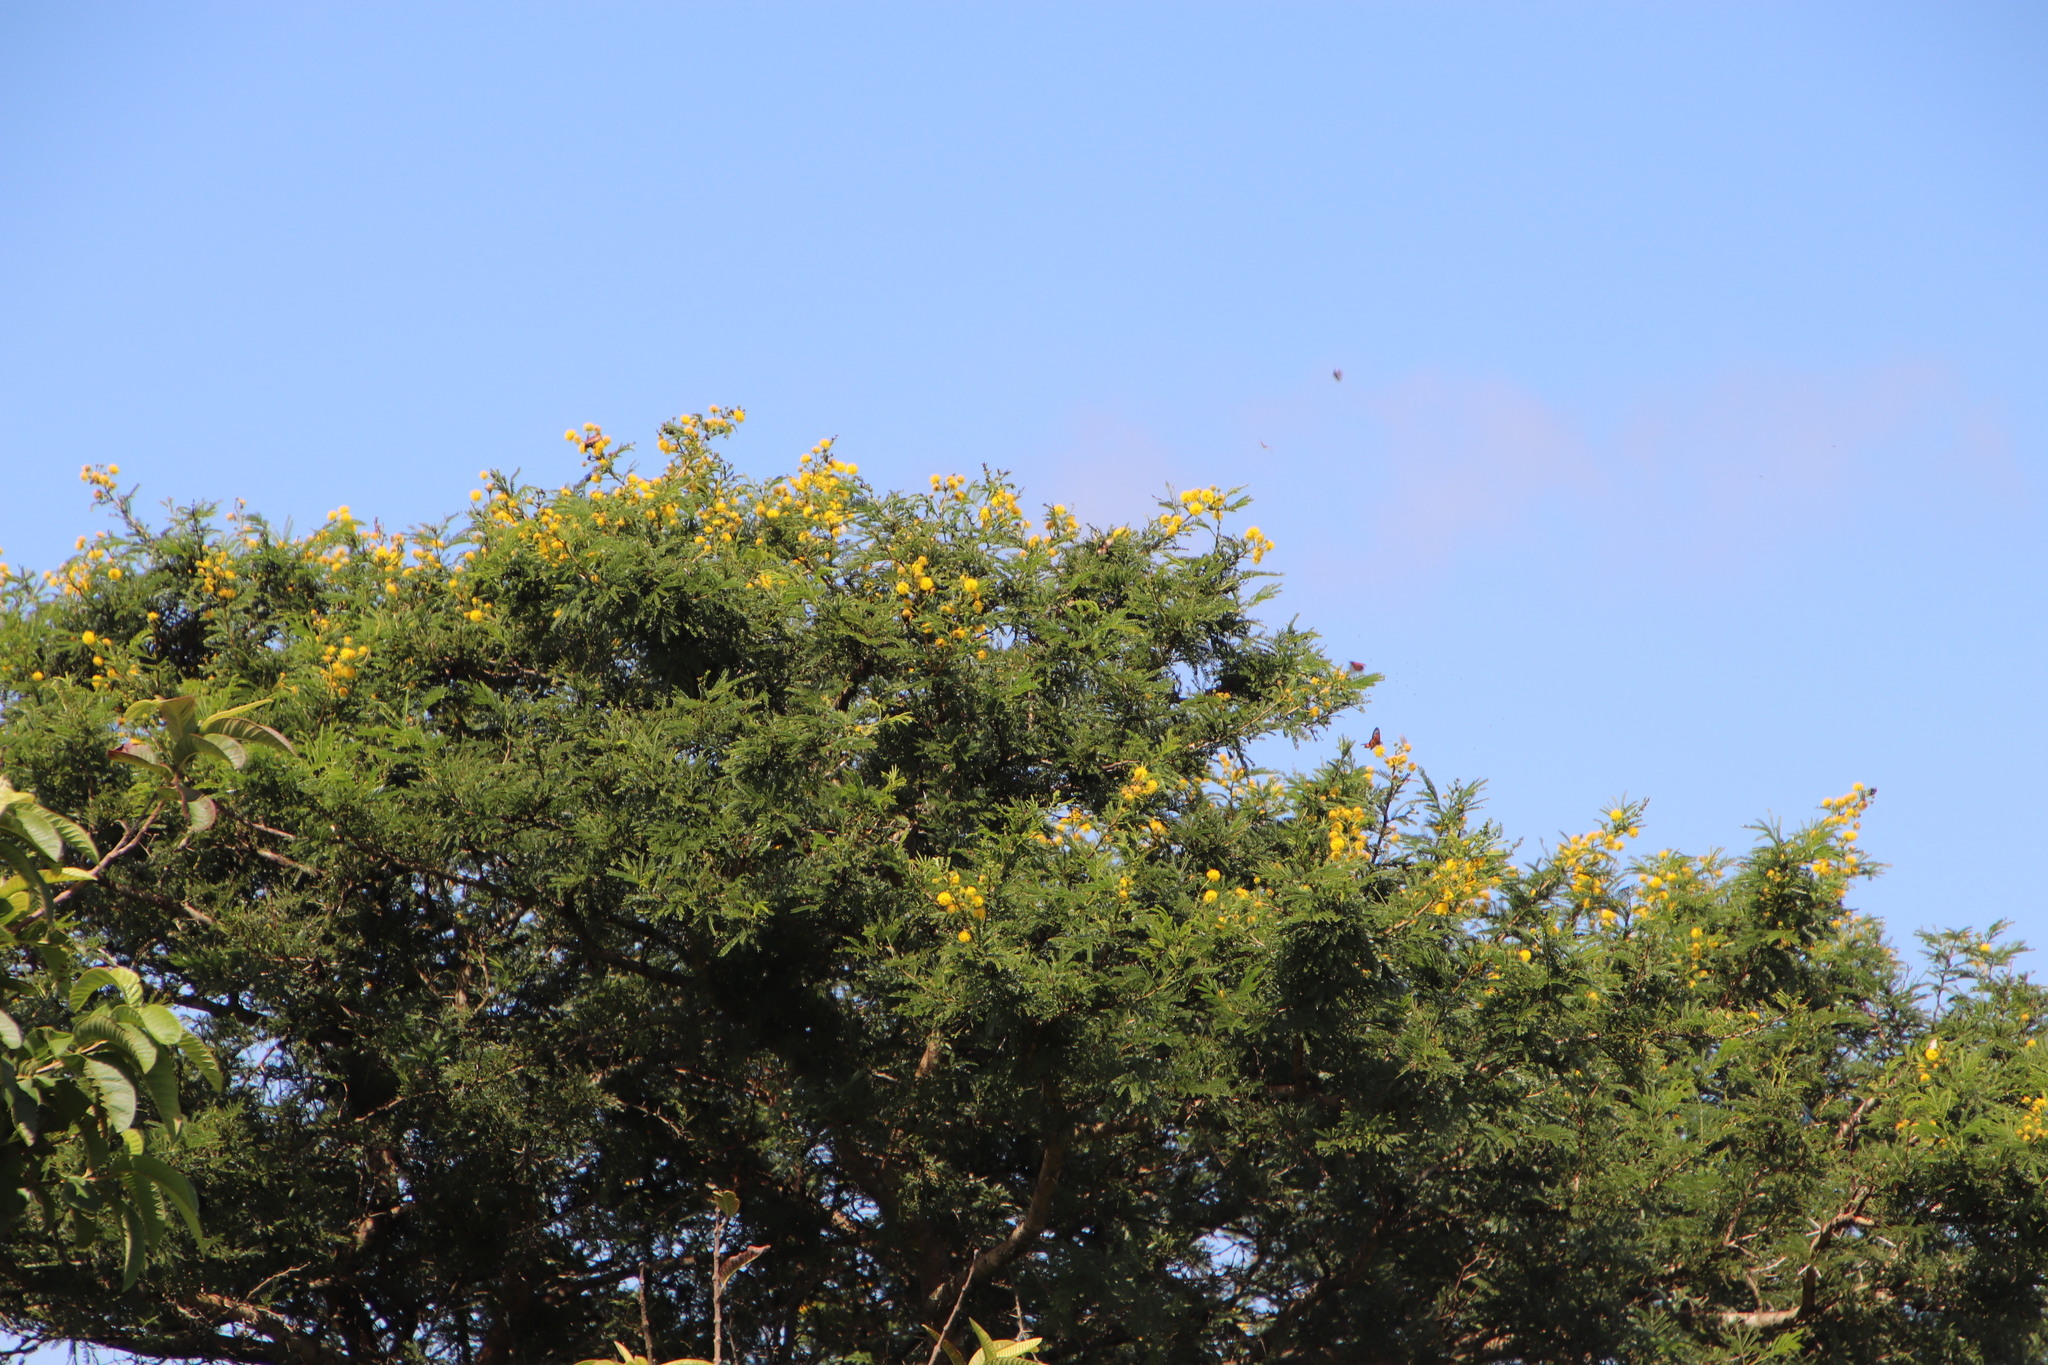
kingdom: Plantae
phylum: Tracheophyta
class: Magnoliopsida
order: Fabales
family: Fabaceae
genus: Vachellia
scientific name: Vachellia karroo
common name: Sweet thorn
